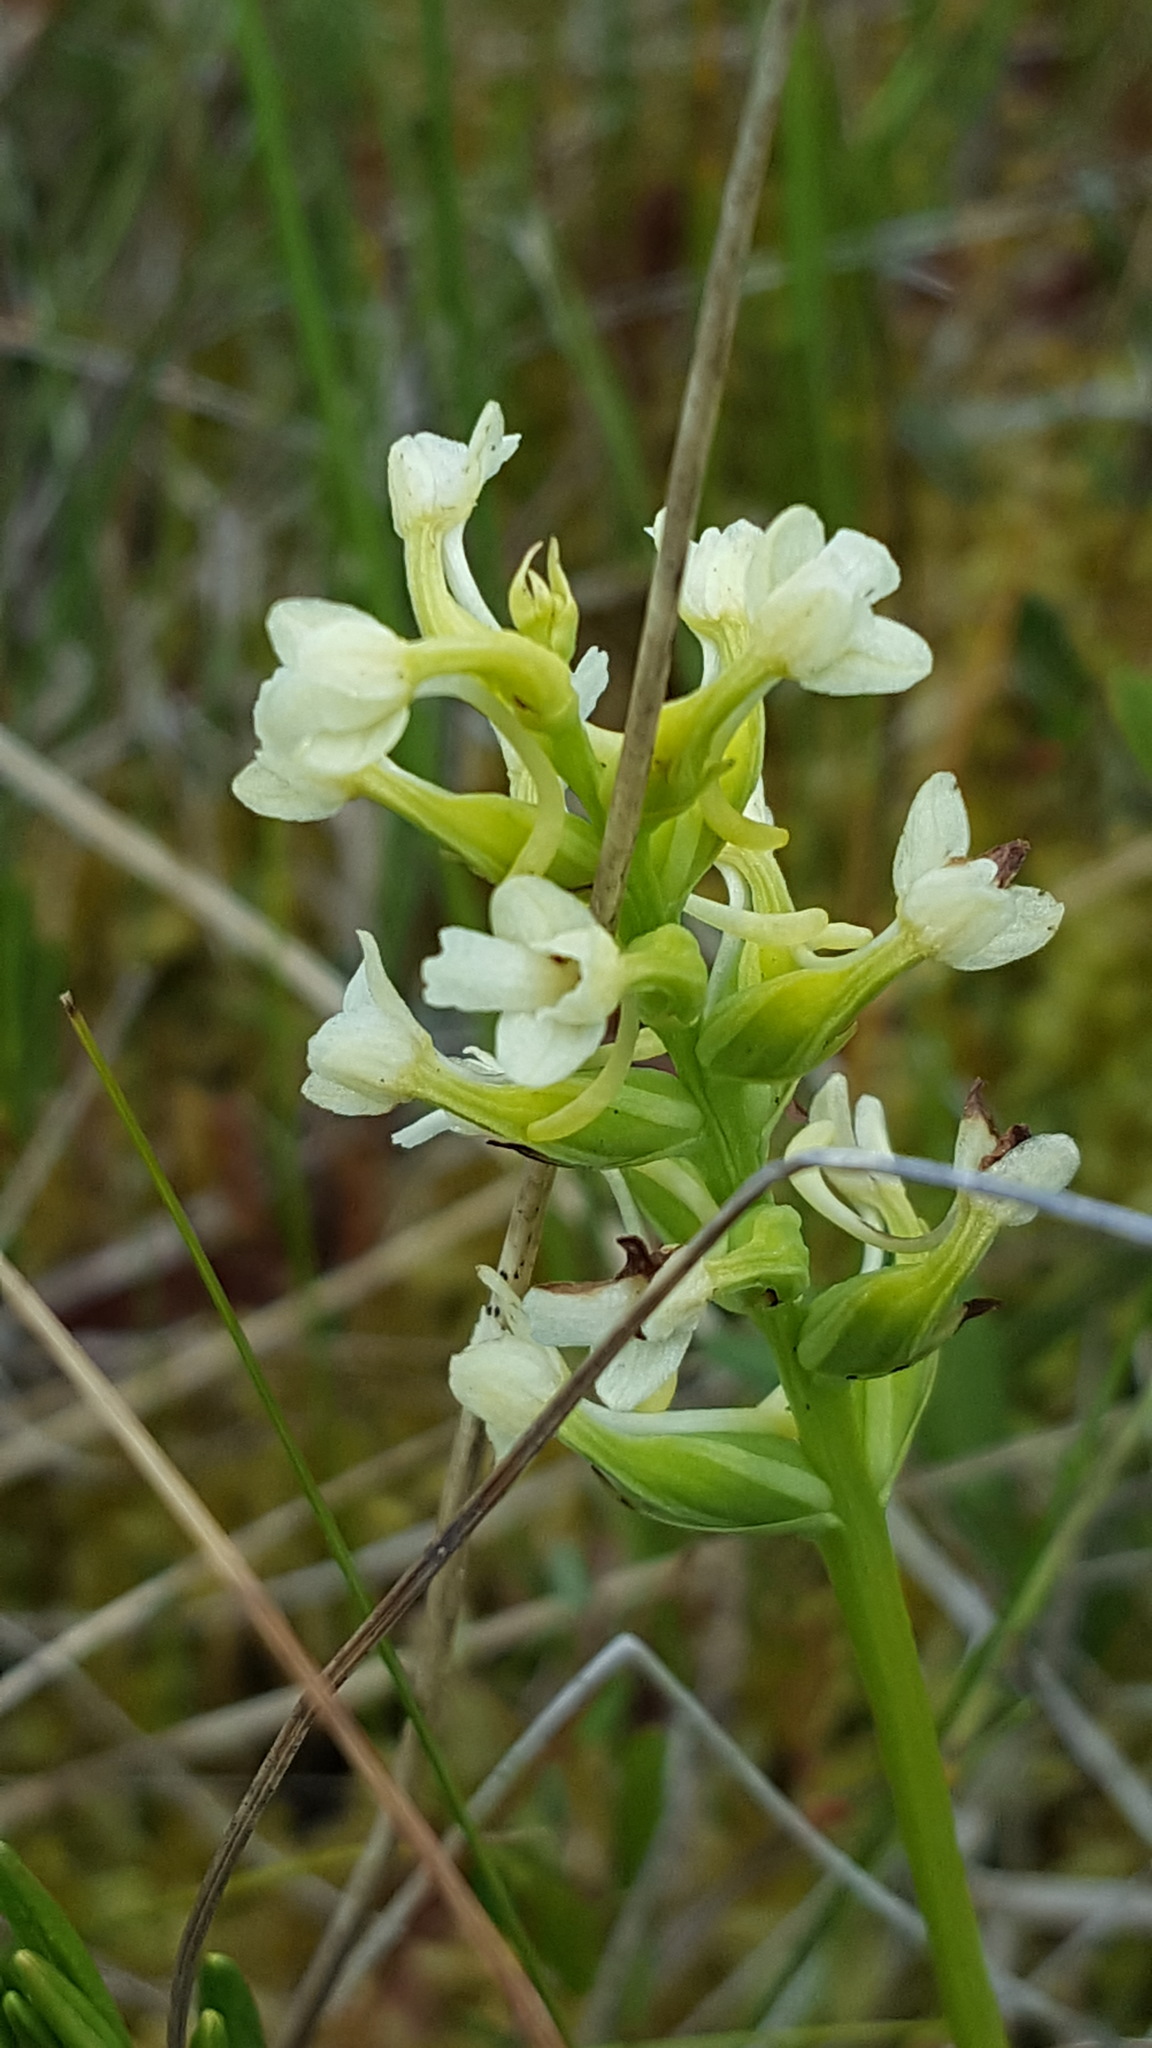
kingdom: Plantae
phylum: Tracheophyta
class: Liliopsida
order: Asparagales
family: Orchidaceae
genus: Platanthera
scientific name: Platanthera clavellata
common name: Club-spur orchid
